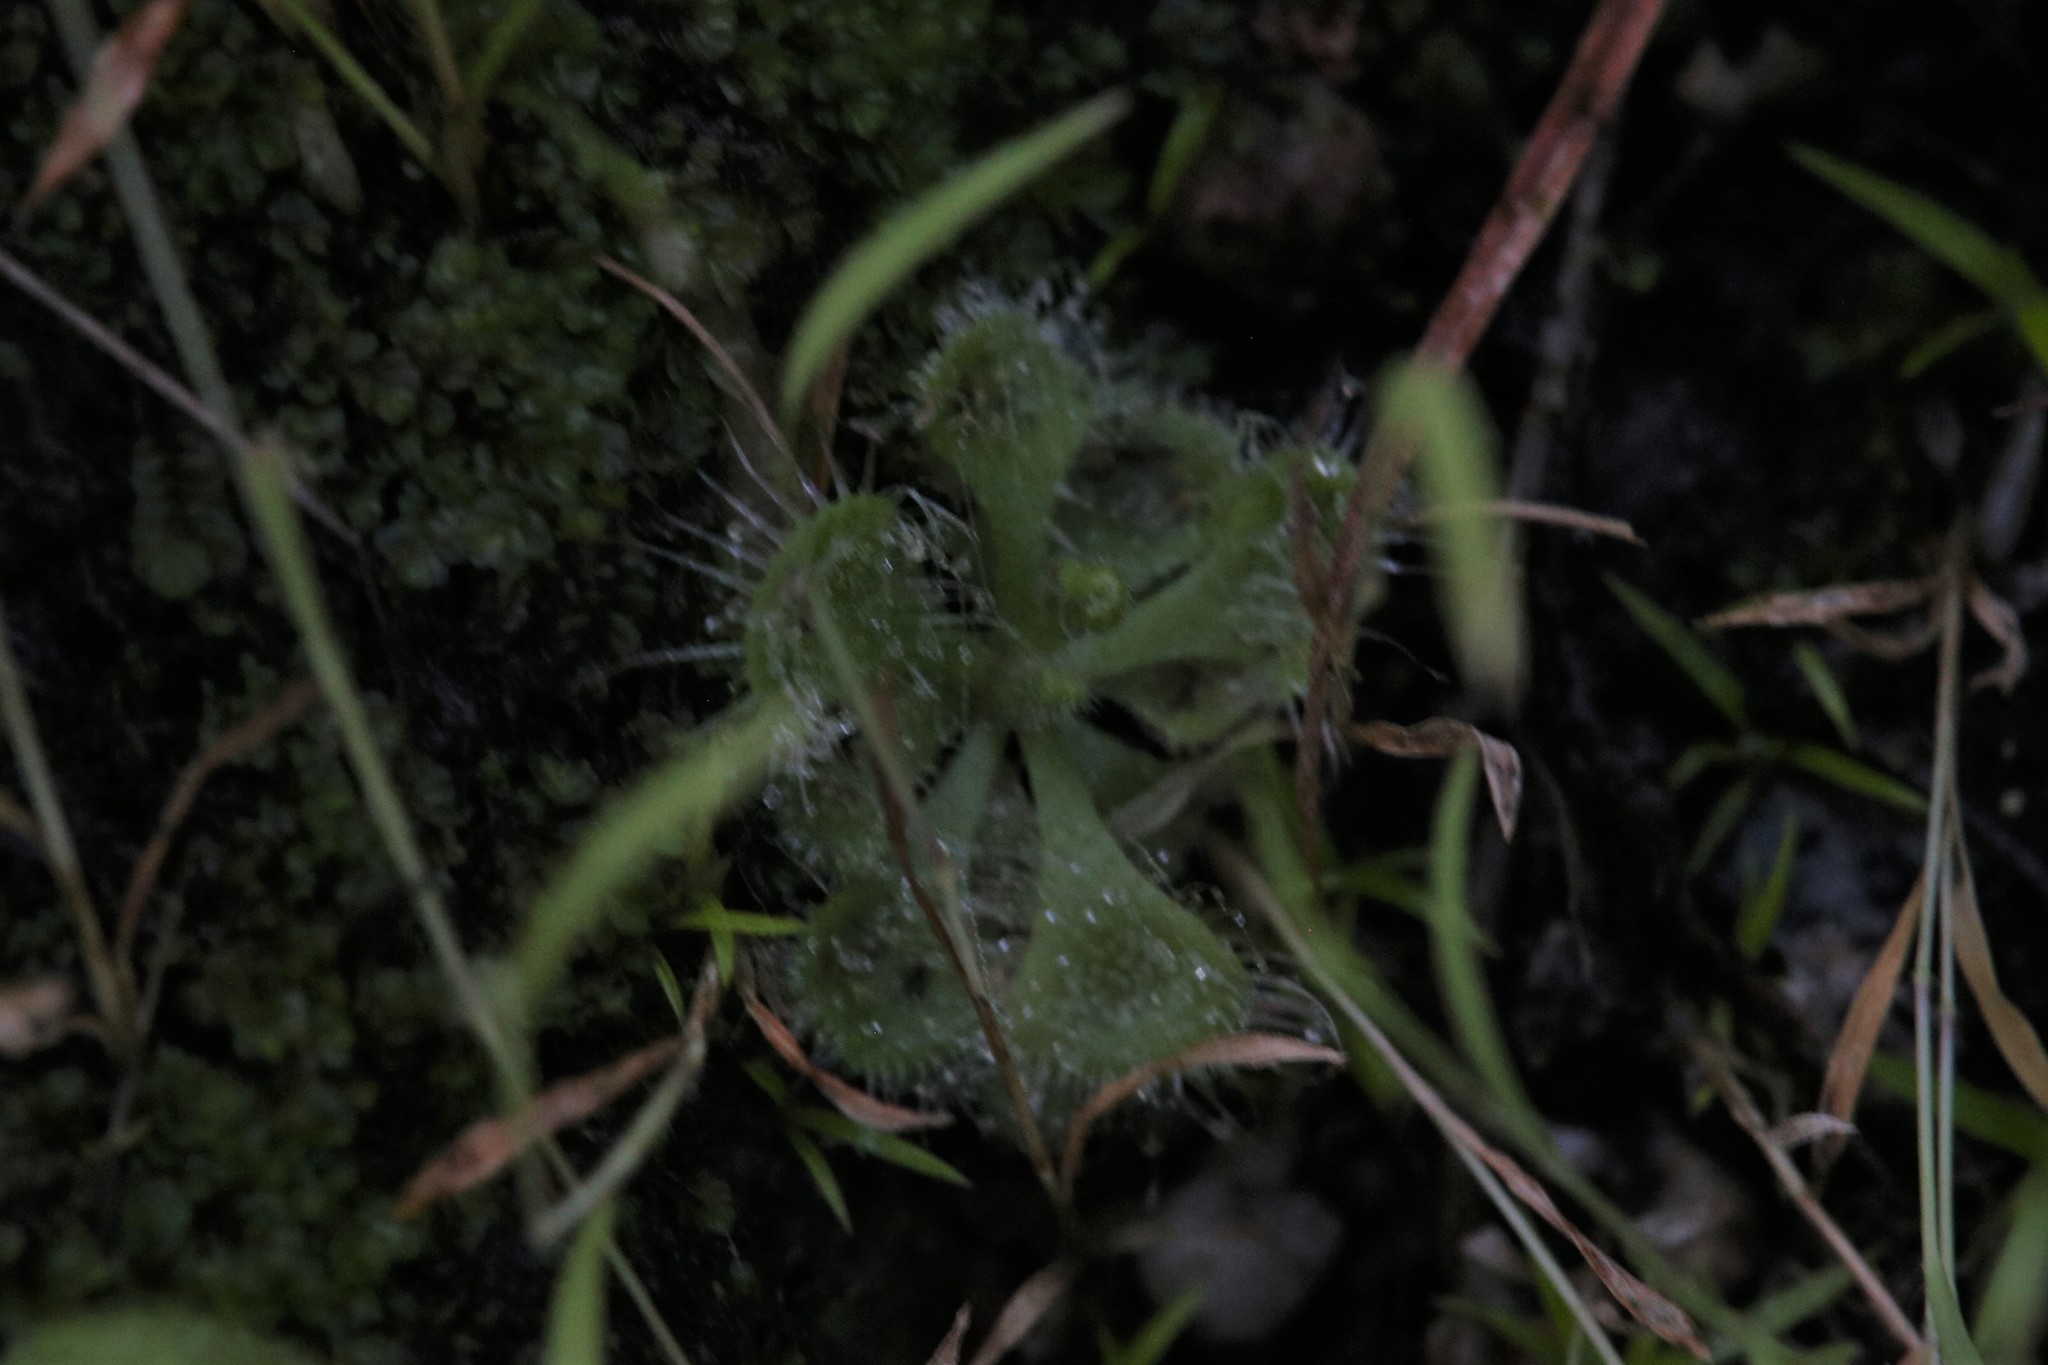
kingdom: Plantae
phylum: Tracheophyta
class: Magnoliopsida
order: Caryophyllales
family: Droseraceae
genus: Drosera
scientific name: Drosera spatulata
